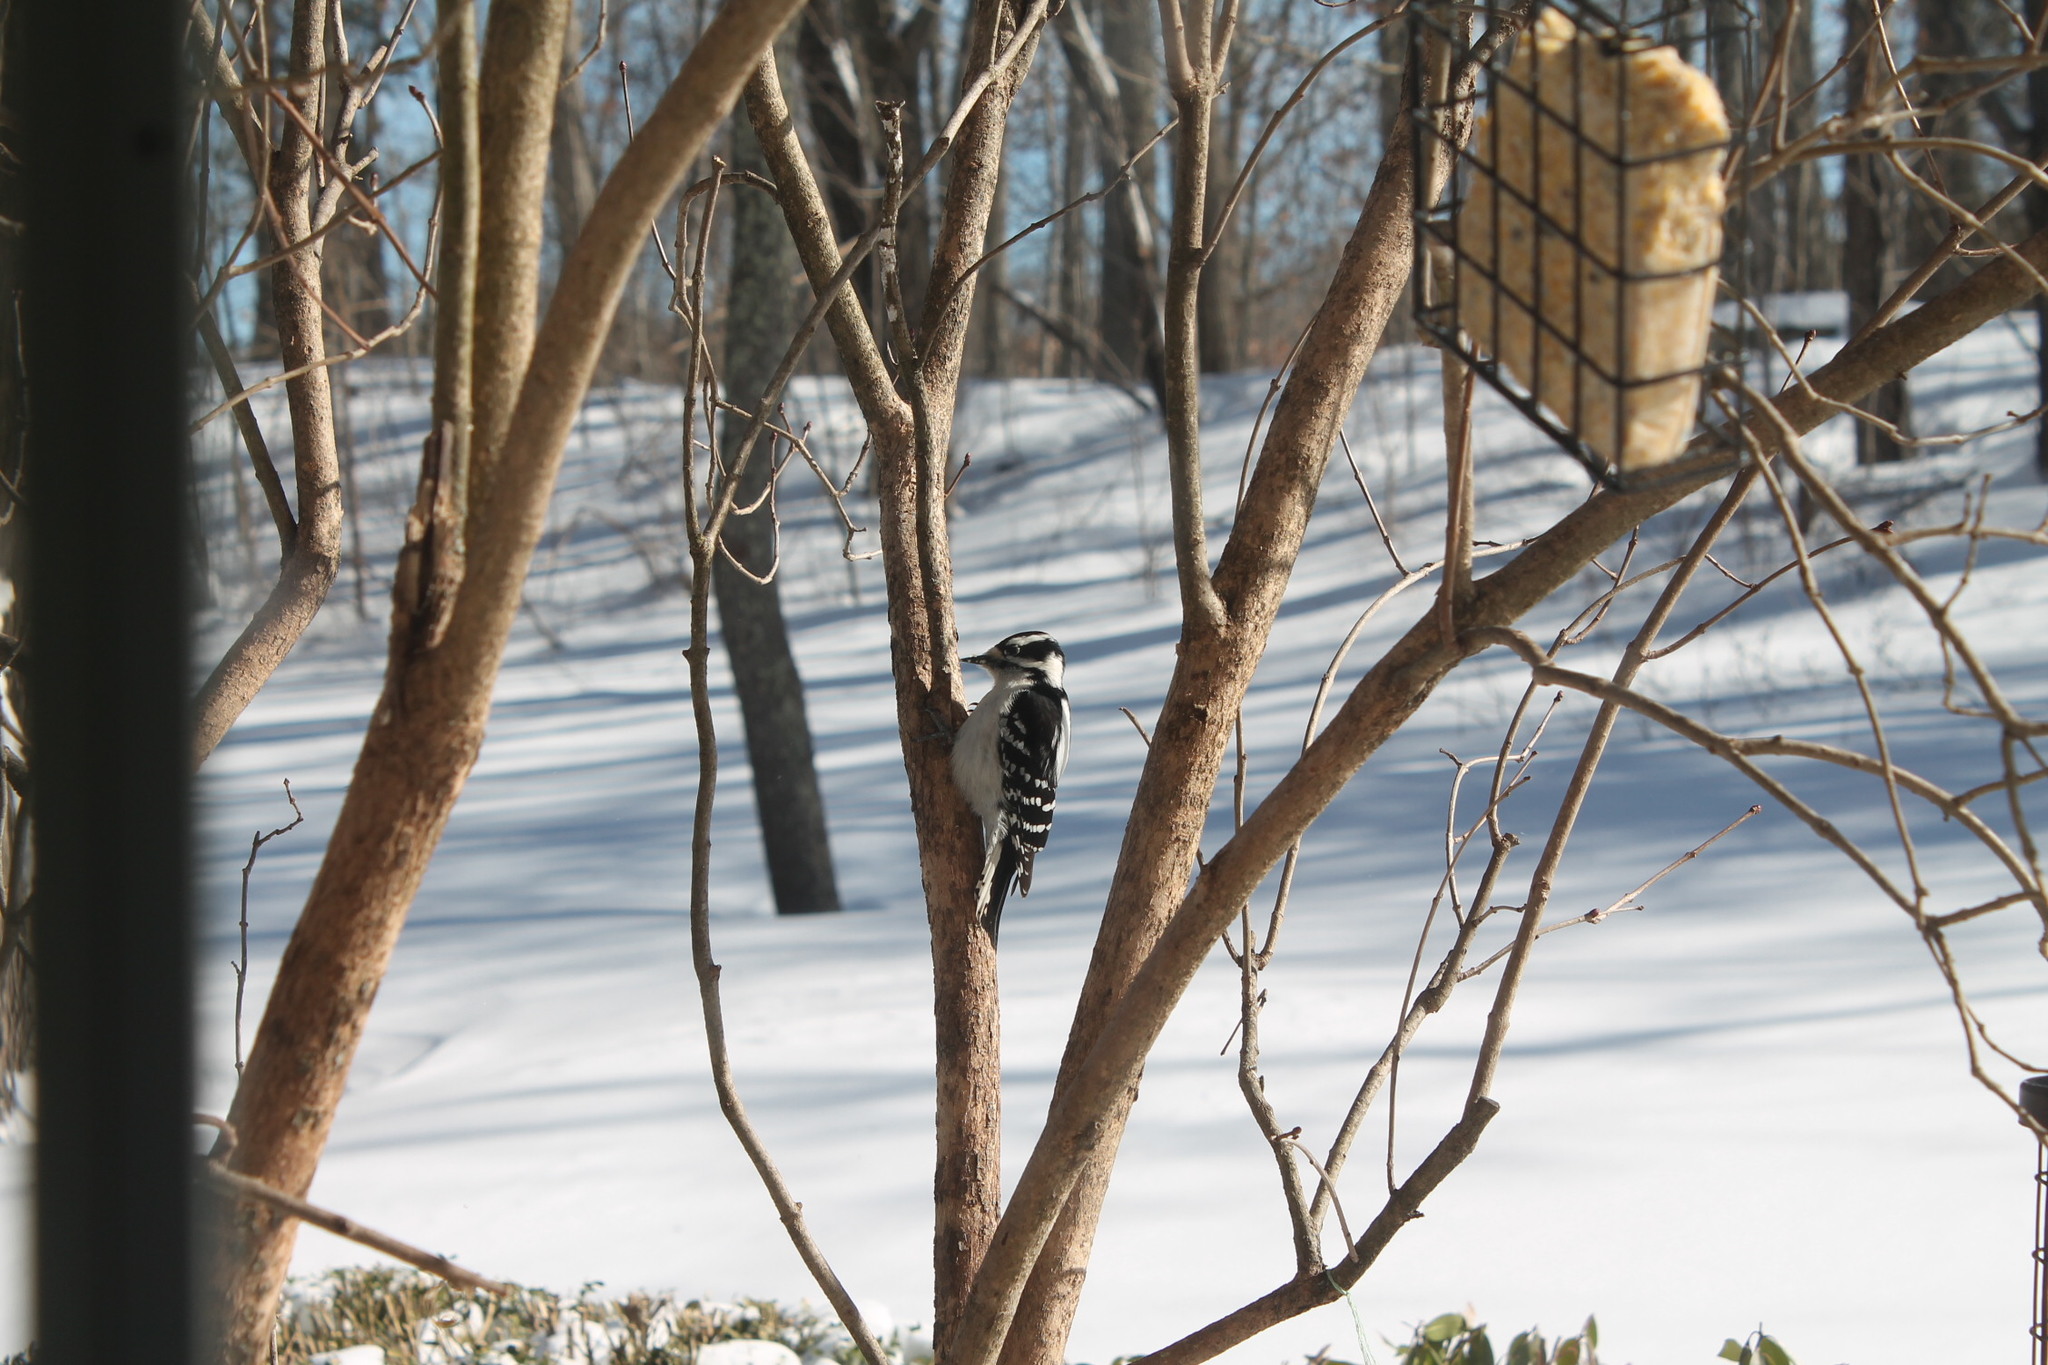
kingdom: Animalia
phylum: Chordata
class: Aves
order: Piciformes
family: Picidae
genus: Dryobates
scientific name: Dryobates pubescens
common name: Downy woodpecker
